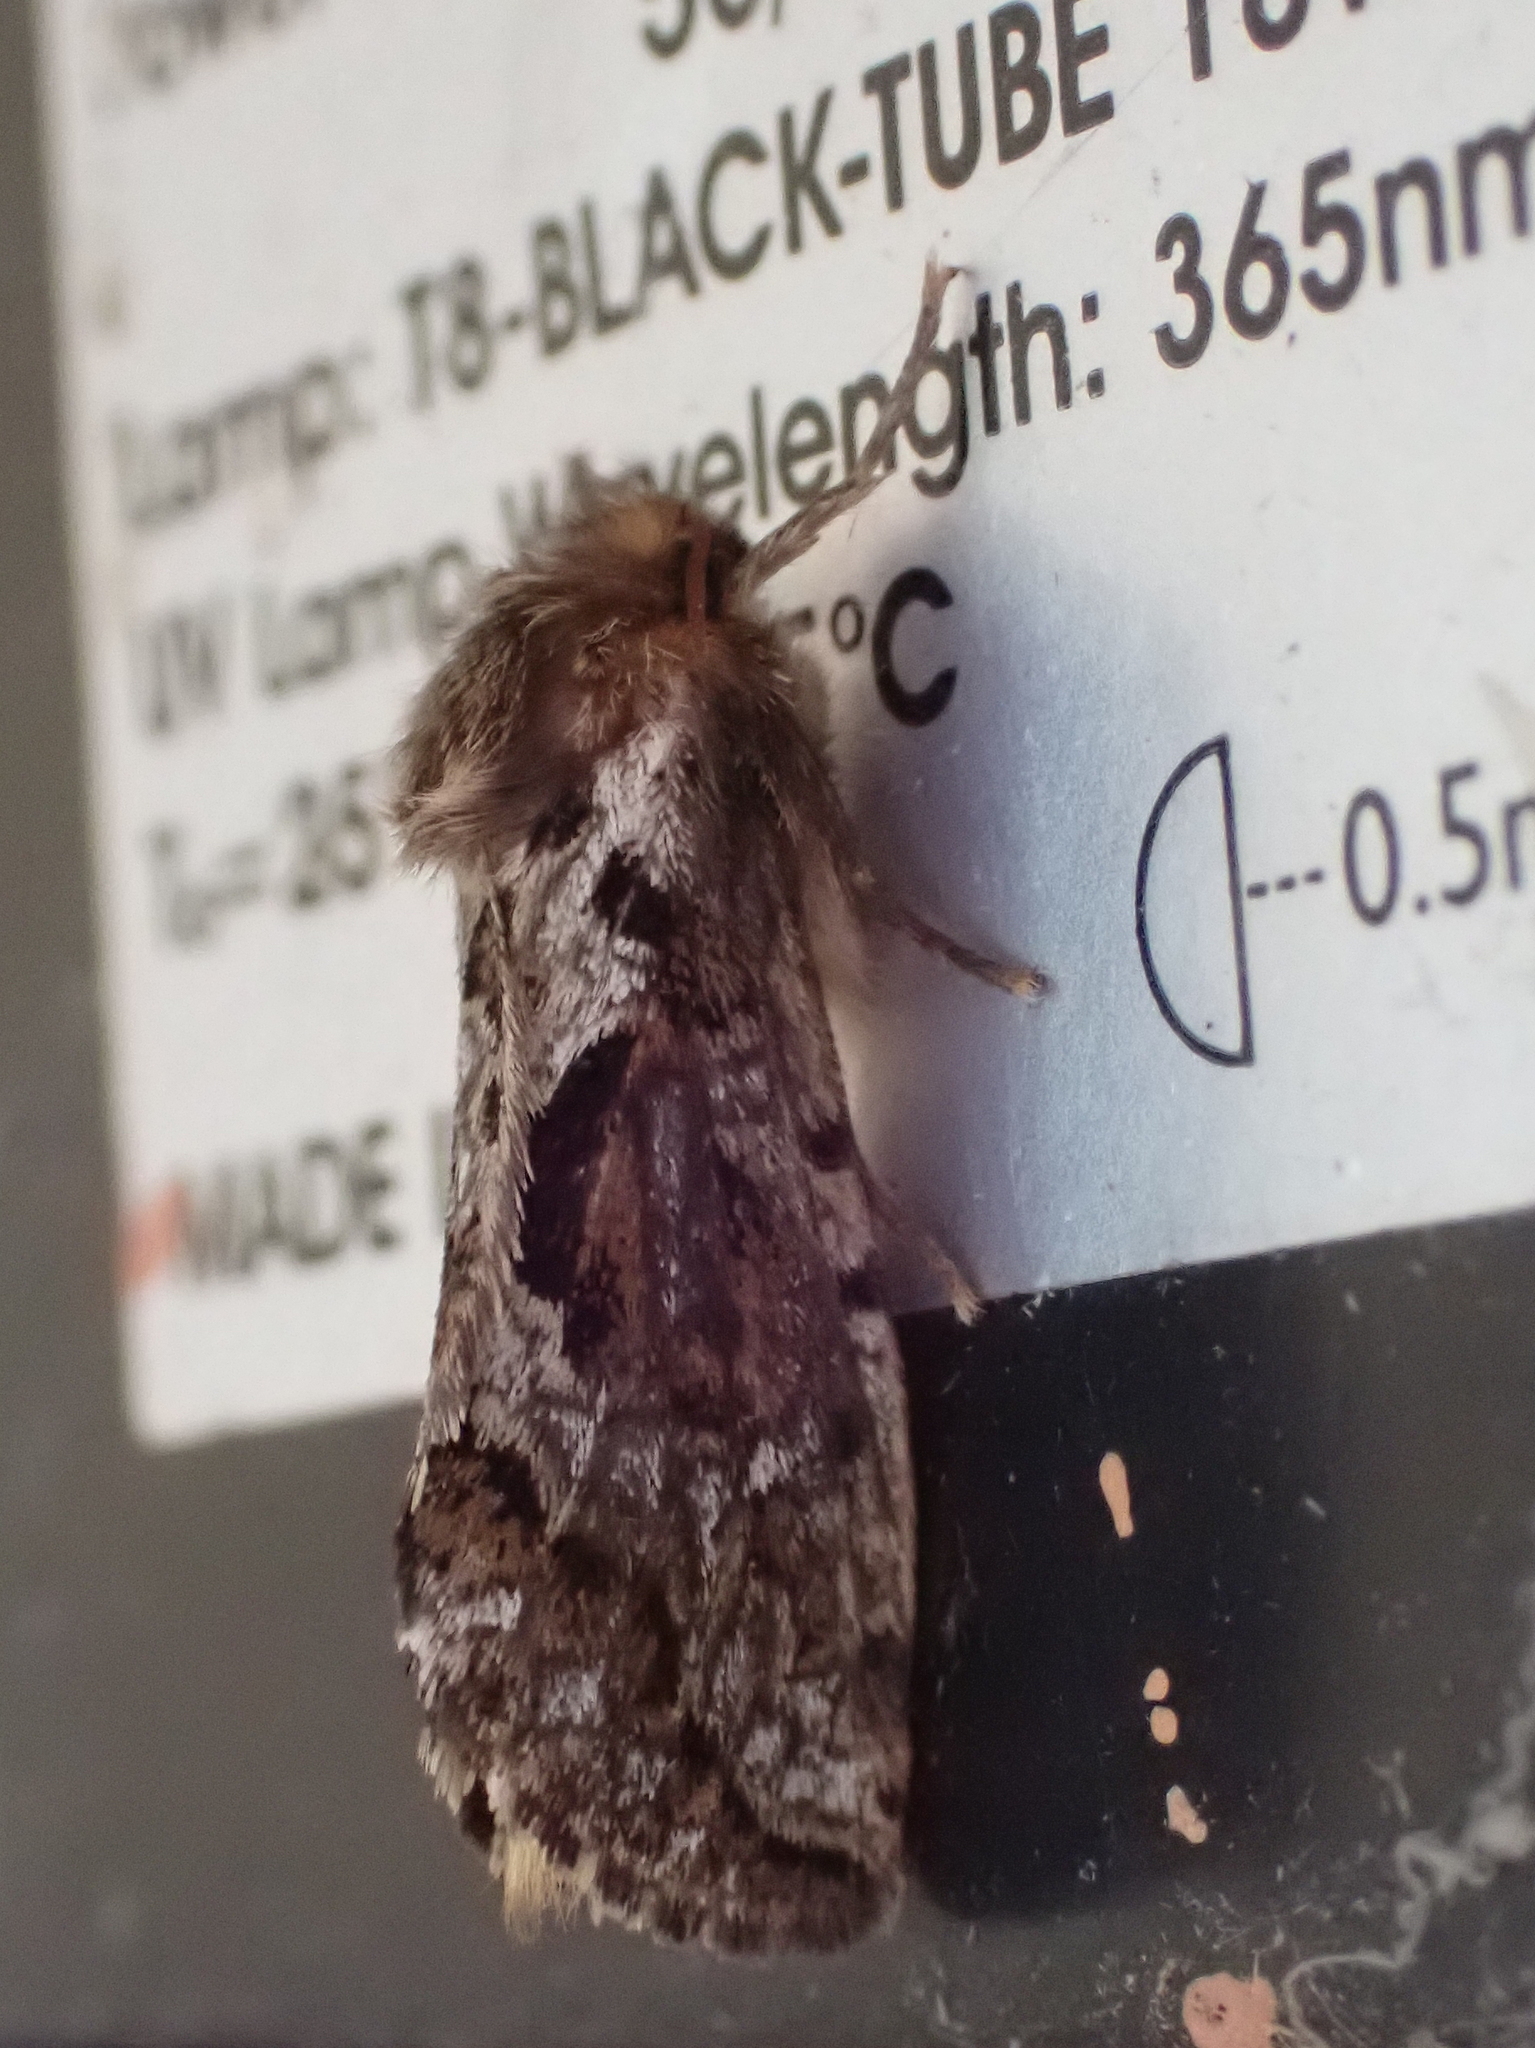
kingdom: Animalia
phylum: Arthropoda
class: Insecta
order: Lepidoptera
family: Hepialidae
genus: Korscheltellus
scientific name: Korscheltellus gracilis
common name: Conifer swift moth
